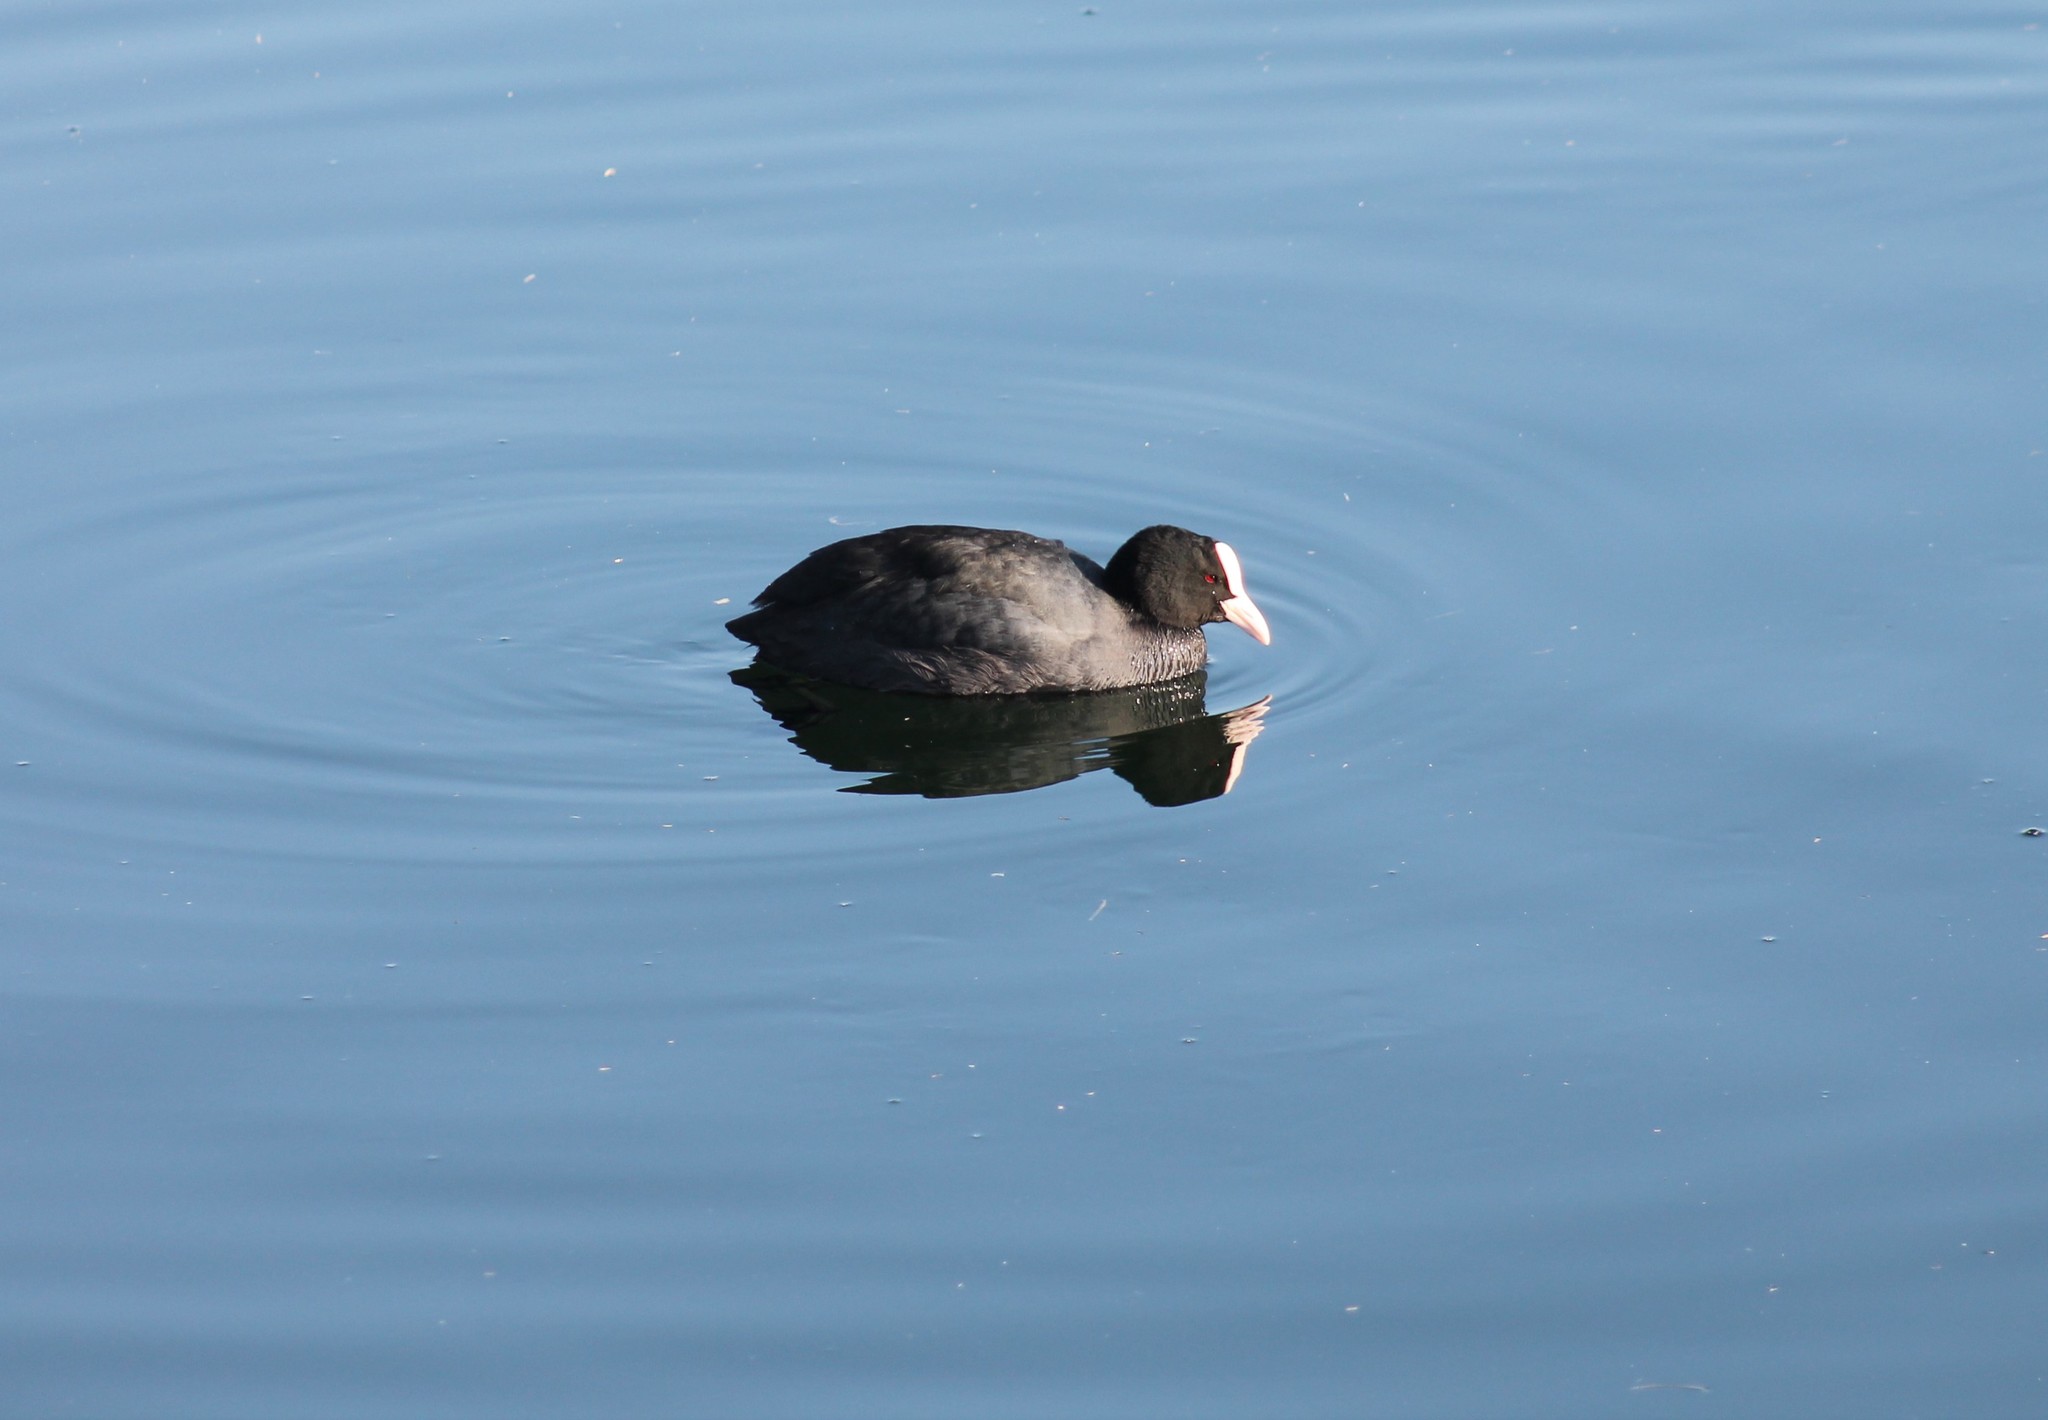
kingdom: Animalia
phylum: Chordata
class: Aves
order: Gruiformes
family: Rallidae
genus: Fulica
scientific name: Fulica atra
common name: Eurasian coot
